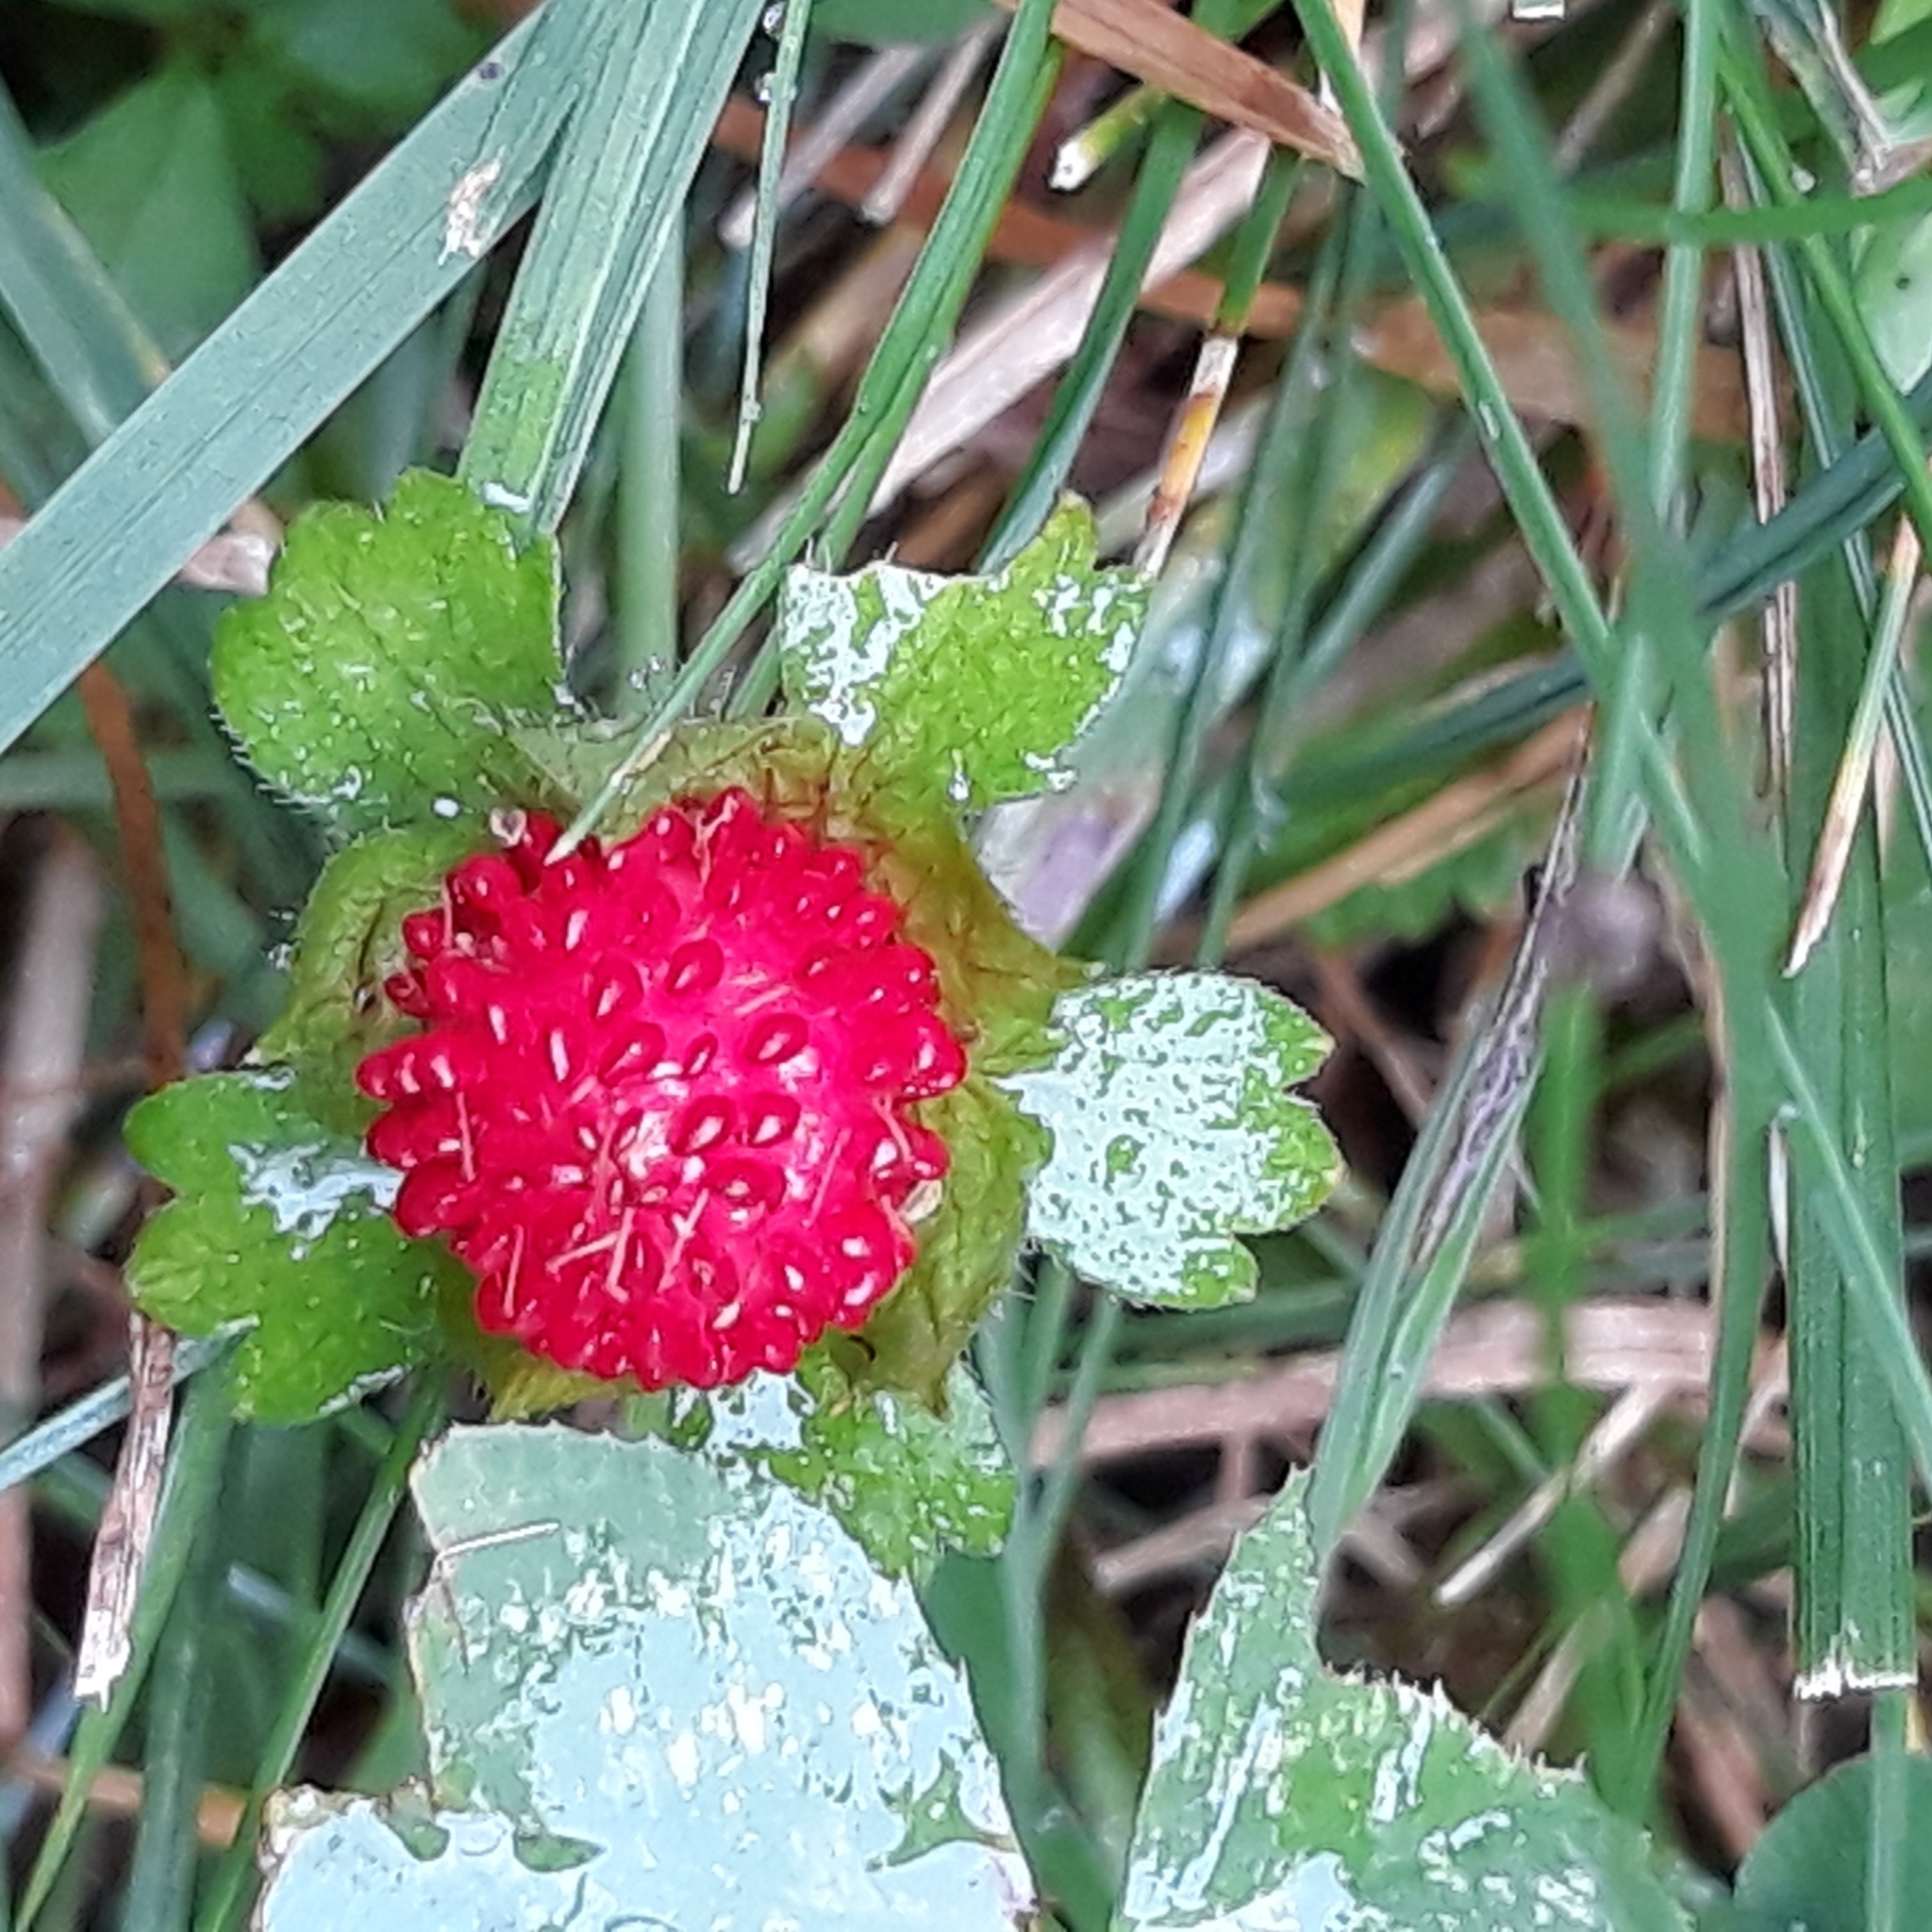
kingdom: Plantae
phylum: Tracheophyta
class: Magnoliopsida
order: Rosales
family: Rosaceae
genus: Potentilla
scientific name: Potentilla indica
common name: Yellow-flowered strawberry
